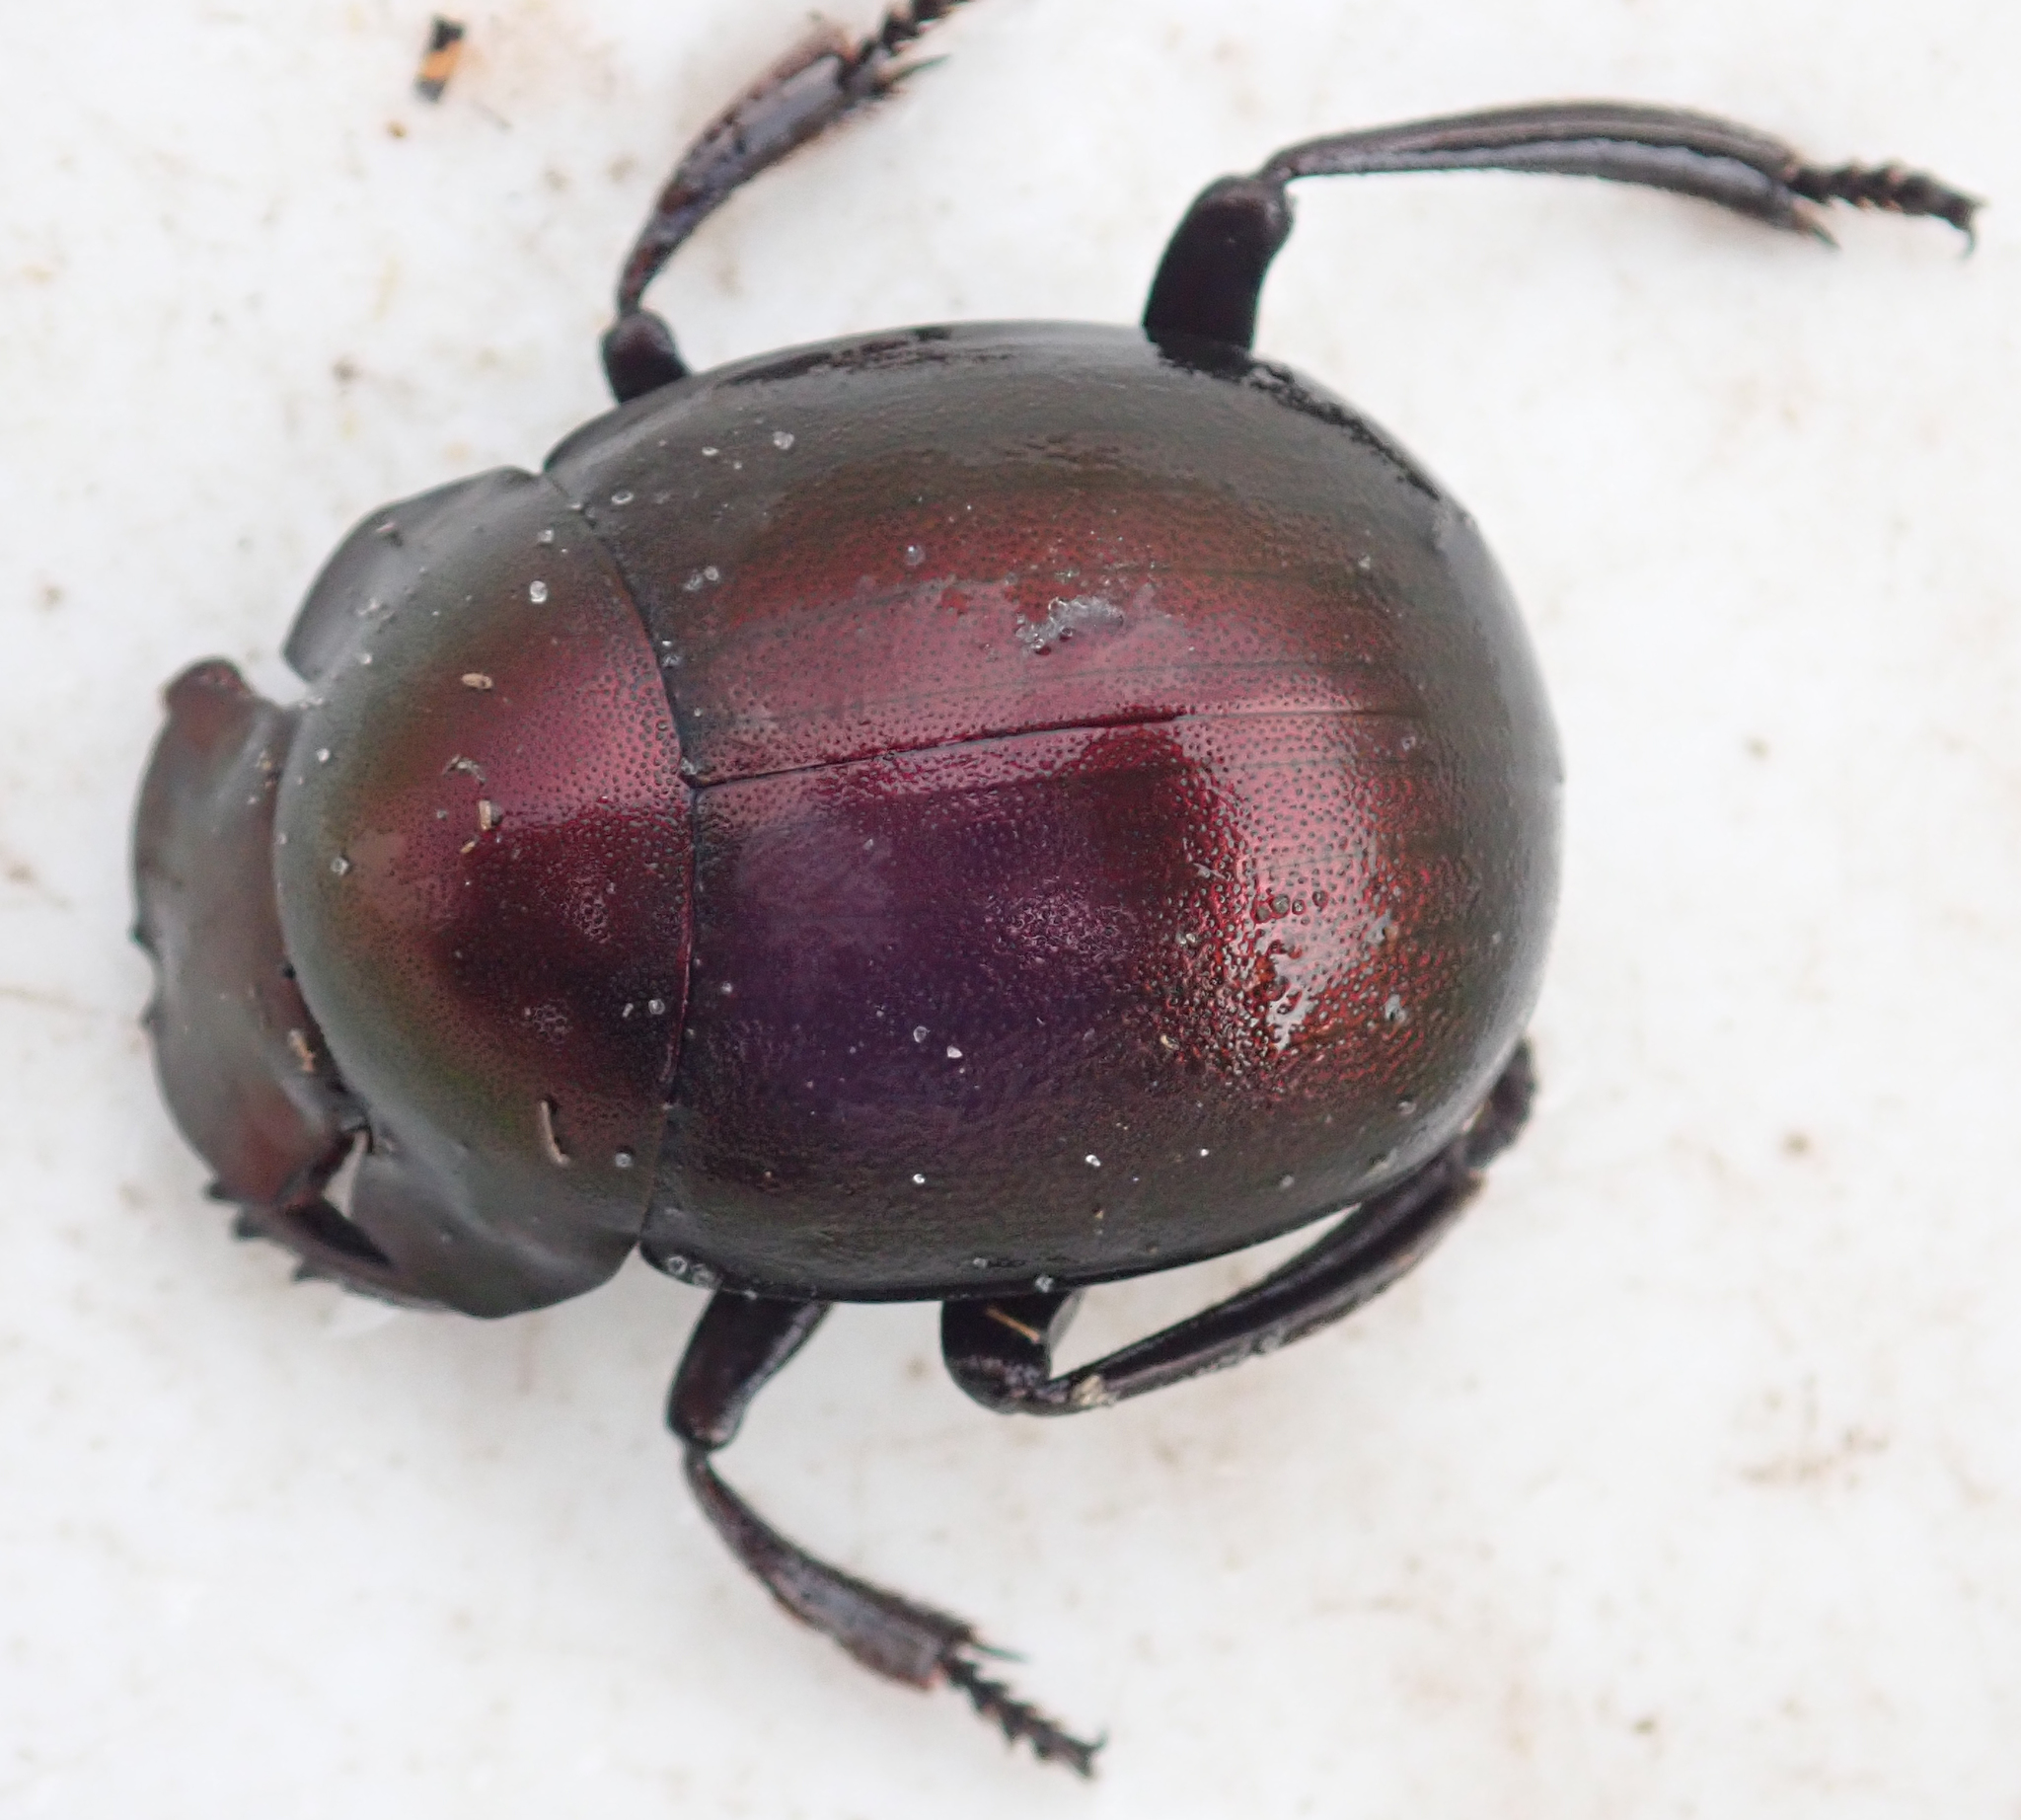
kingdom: Animalia
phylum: Arthropoda
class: Insecta
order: Coleoptera
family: Scarabaeidae
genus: Chalconotus
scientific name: Chalconotus convexus
